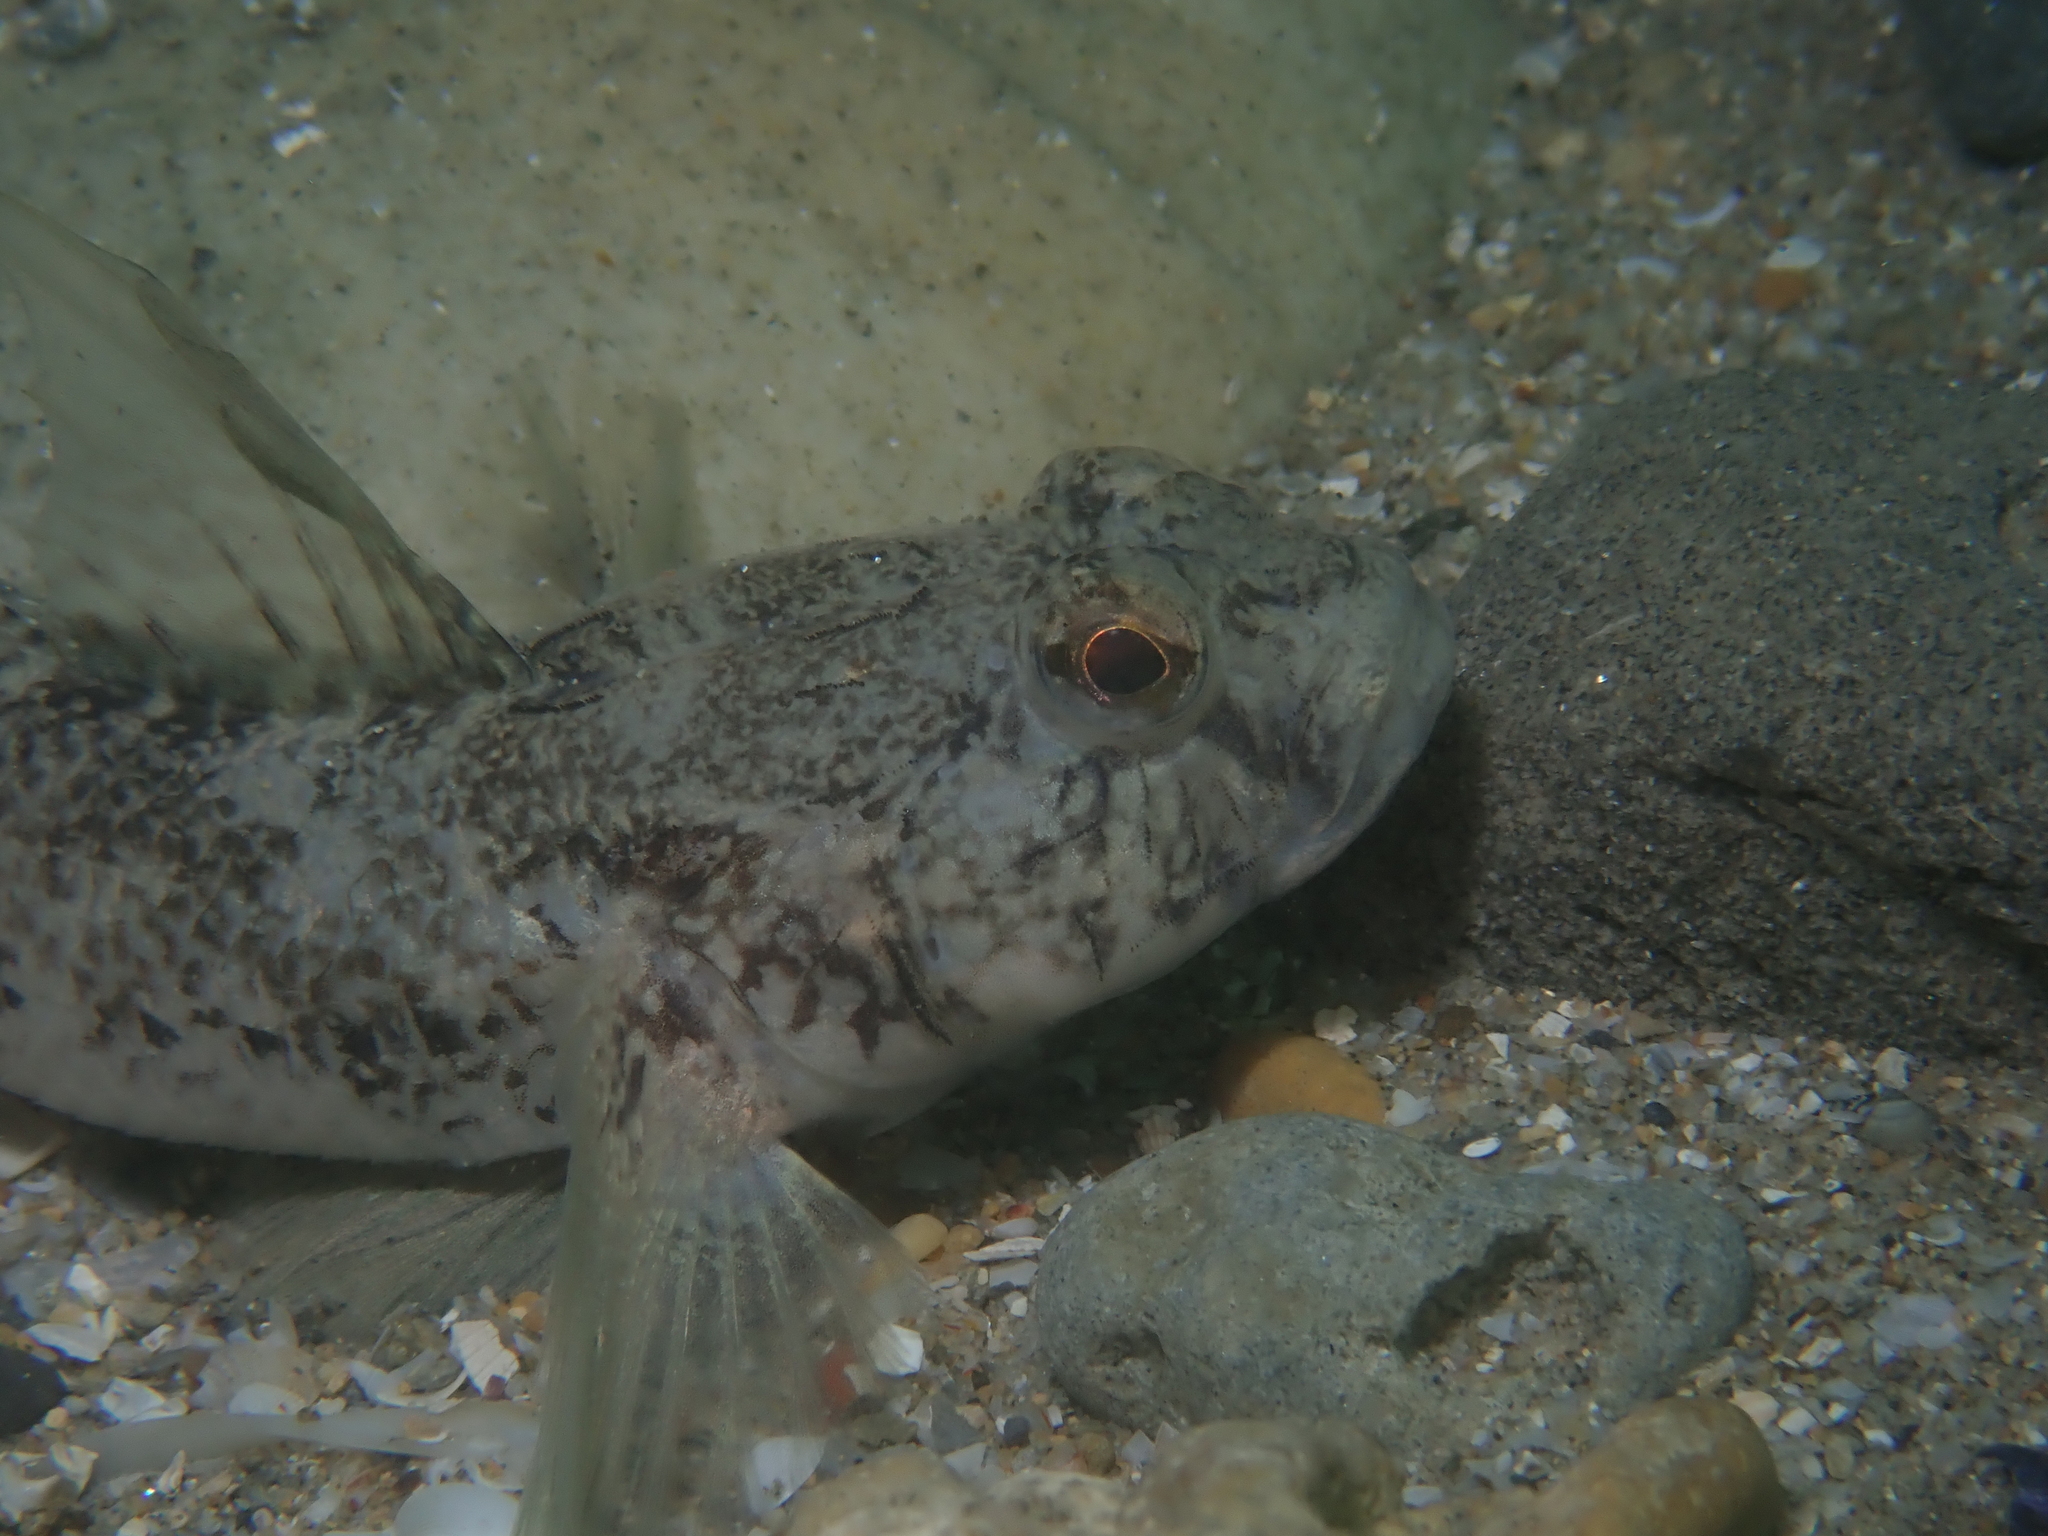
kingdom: Animalia
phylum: Chordata
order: Perciformes
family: Gobiidae
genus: Gobius
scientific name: Gobius niger
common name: Black goby
